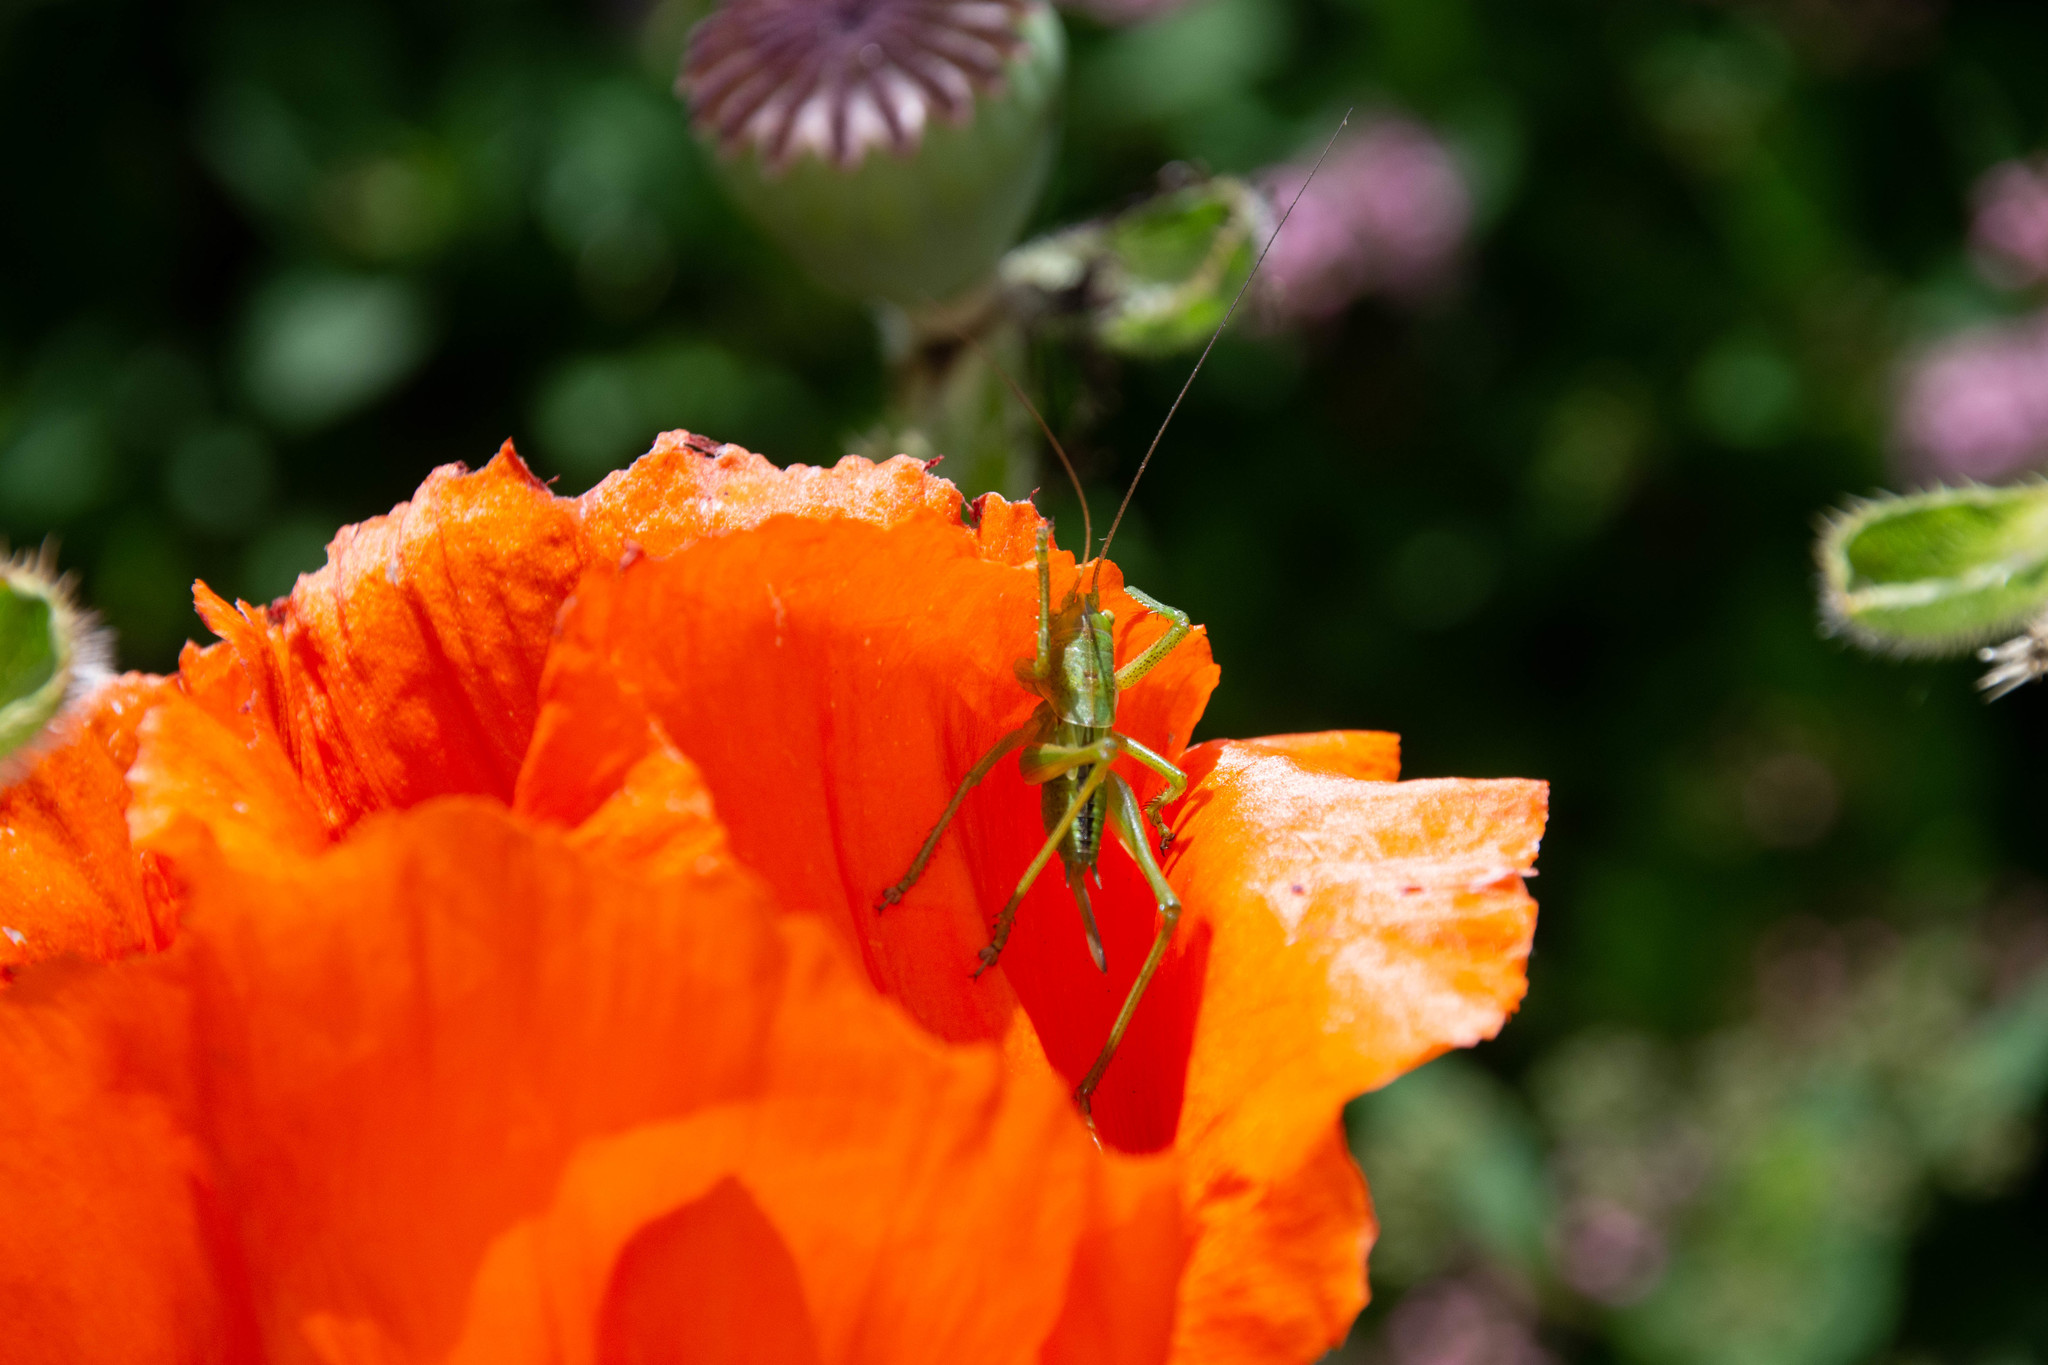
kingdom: Animalia
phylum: Arthropoda
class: Insecta
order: Orthoptera
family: Tettigoniidae
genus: Tettigonia
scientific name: Tettigonia viridissima
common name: Great green bush-cricket
